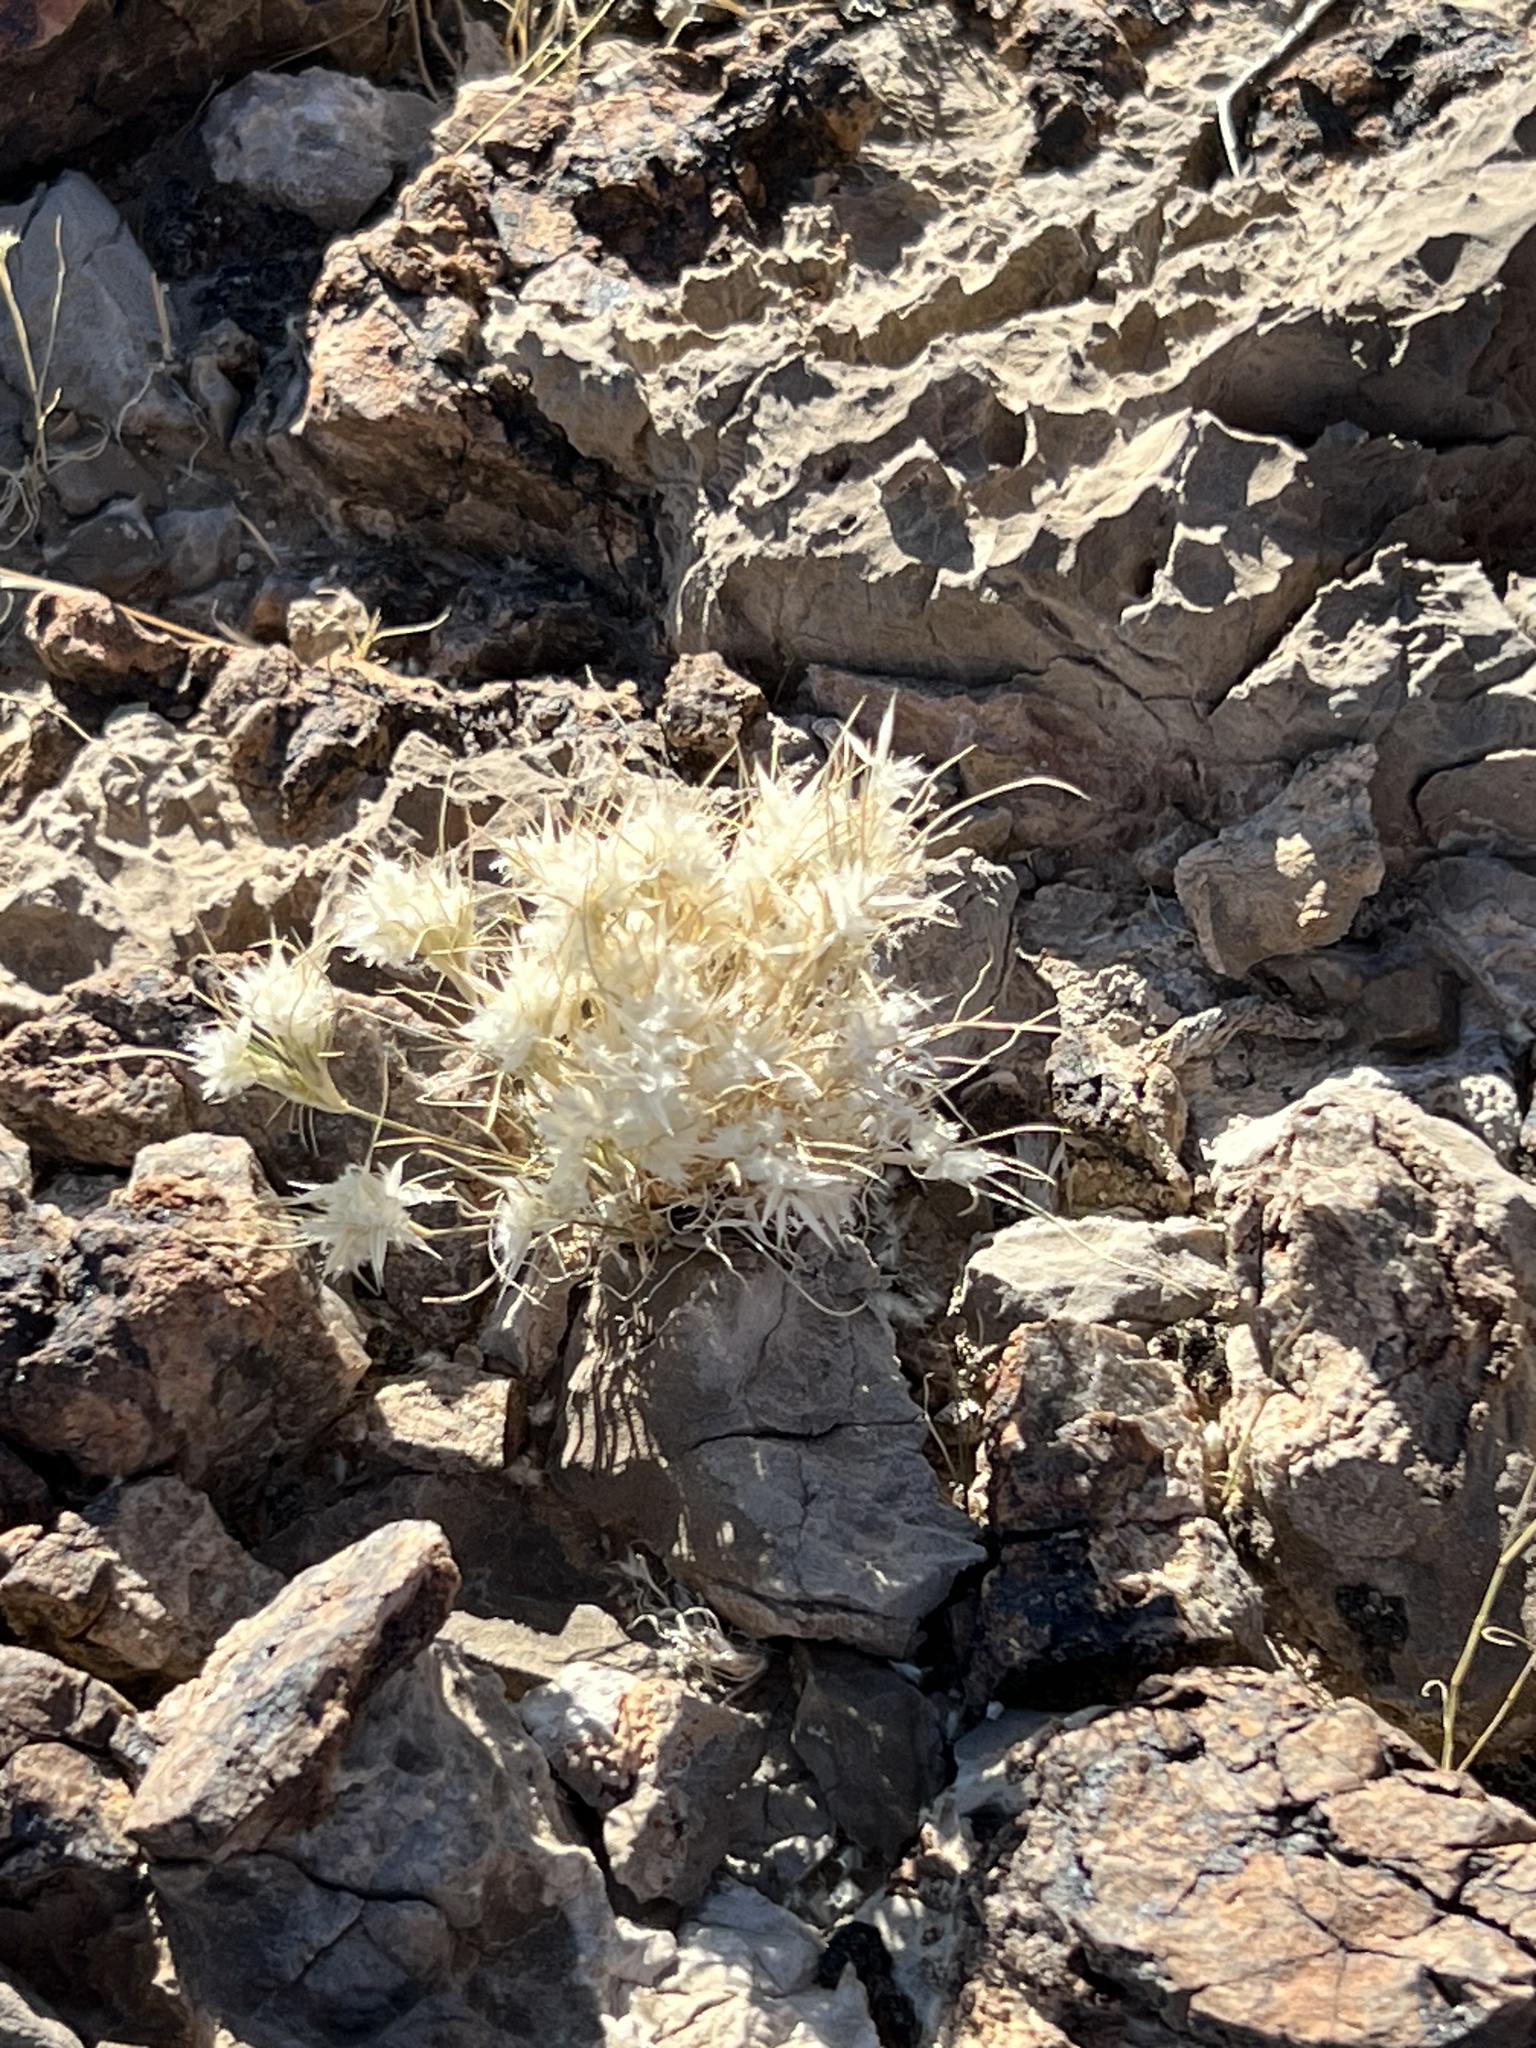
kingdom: Plantae
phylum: Tracheophyta
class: Liliopsida
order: Poales
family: Poaceae
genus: Dasyochloa
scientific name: Dasyochloa pulchella
